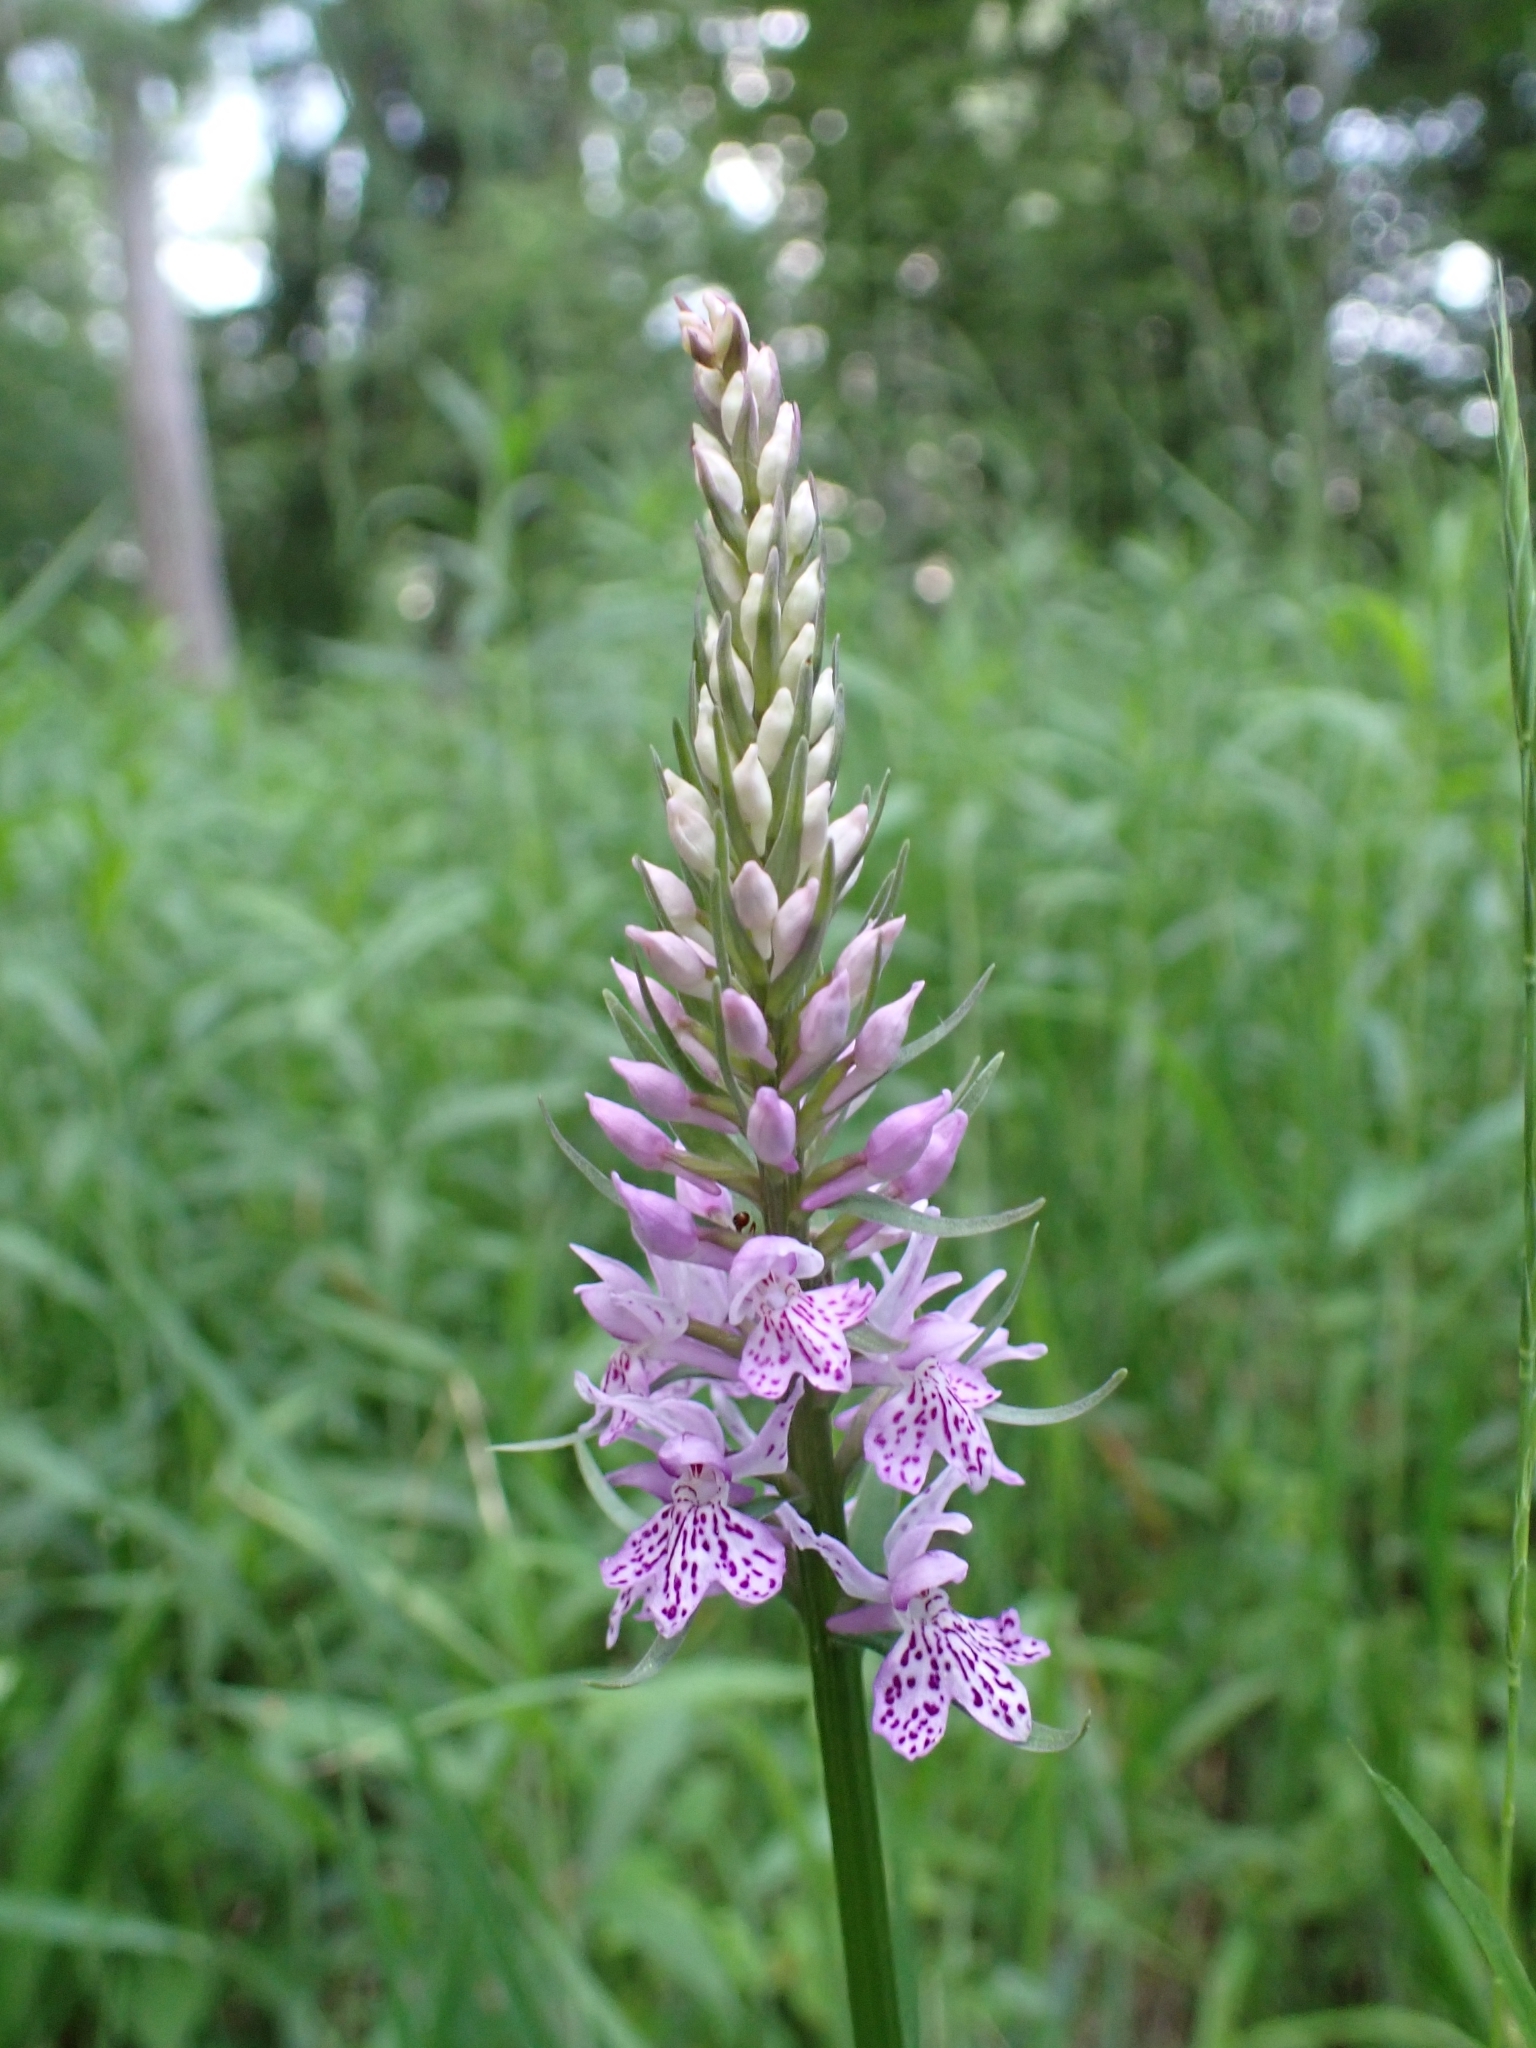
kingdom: Plantae
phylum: Tracheophyta
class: Liliopsida
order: Asparagales
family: Orchidaceae
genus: Dactylorhiza
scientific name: Dactylorhiza maculata
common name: Heath spotted-orchid
